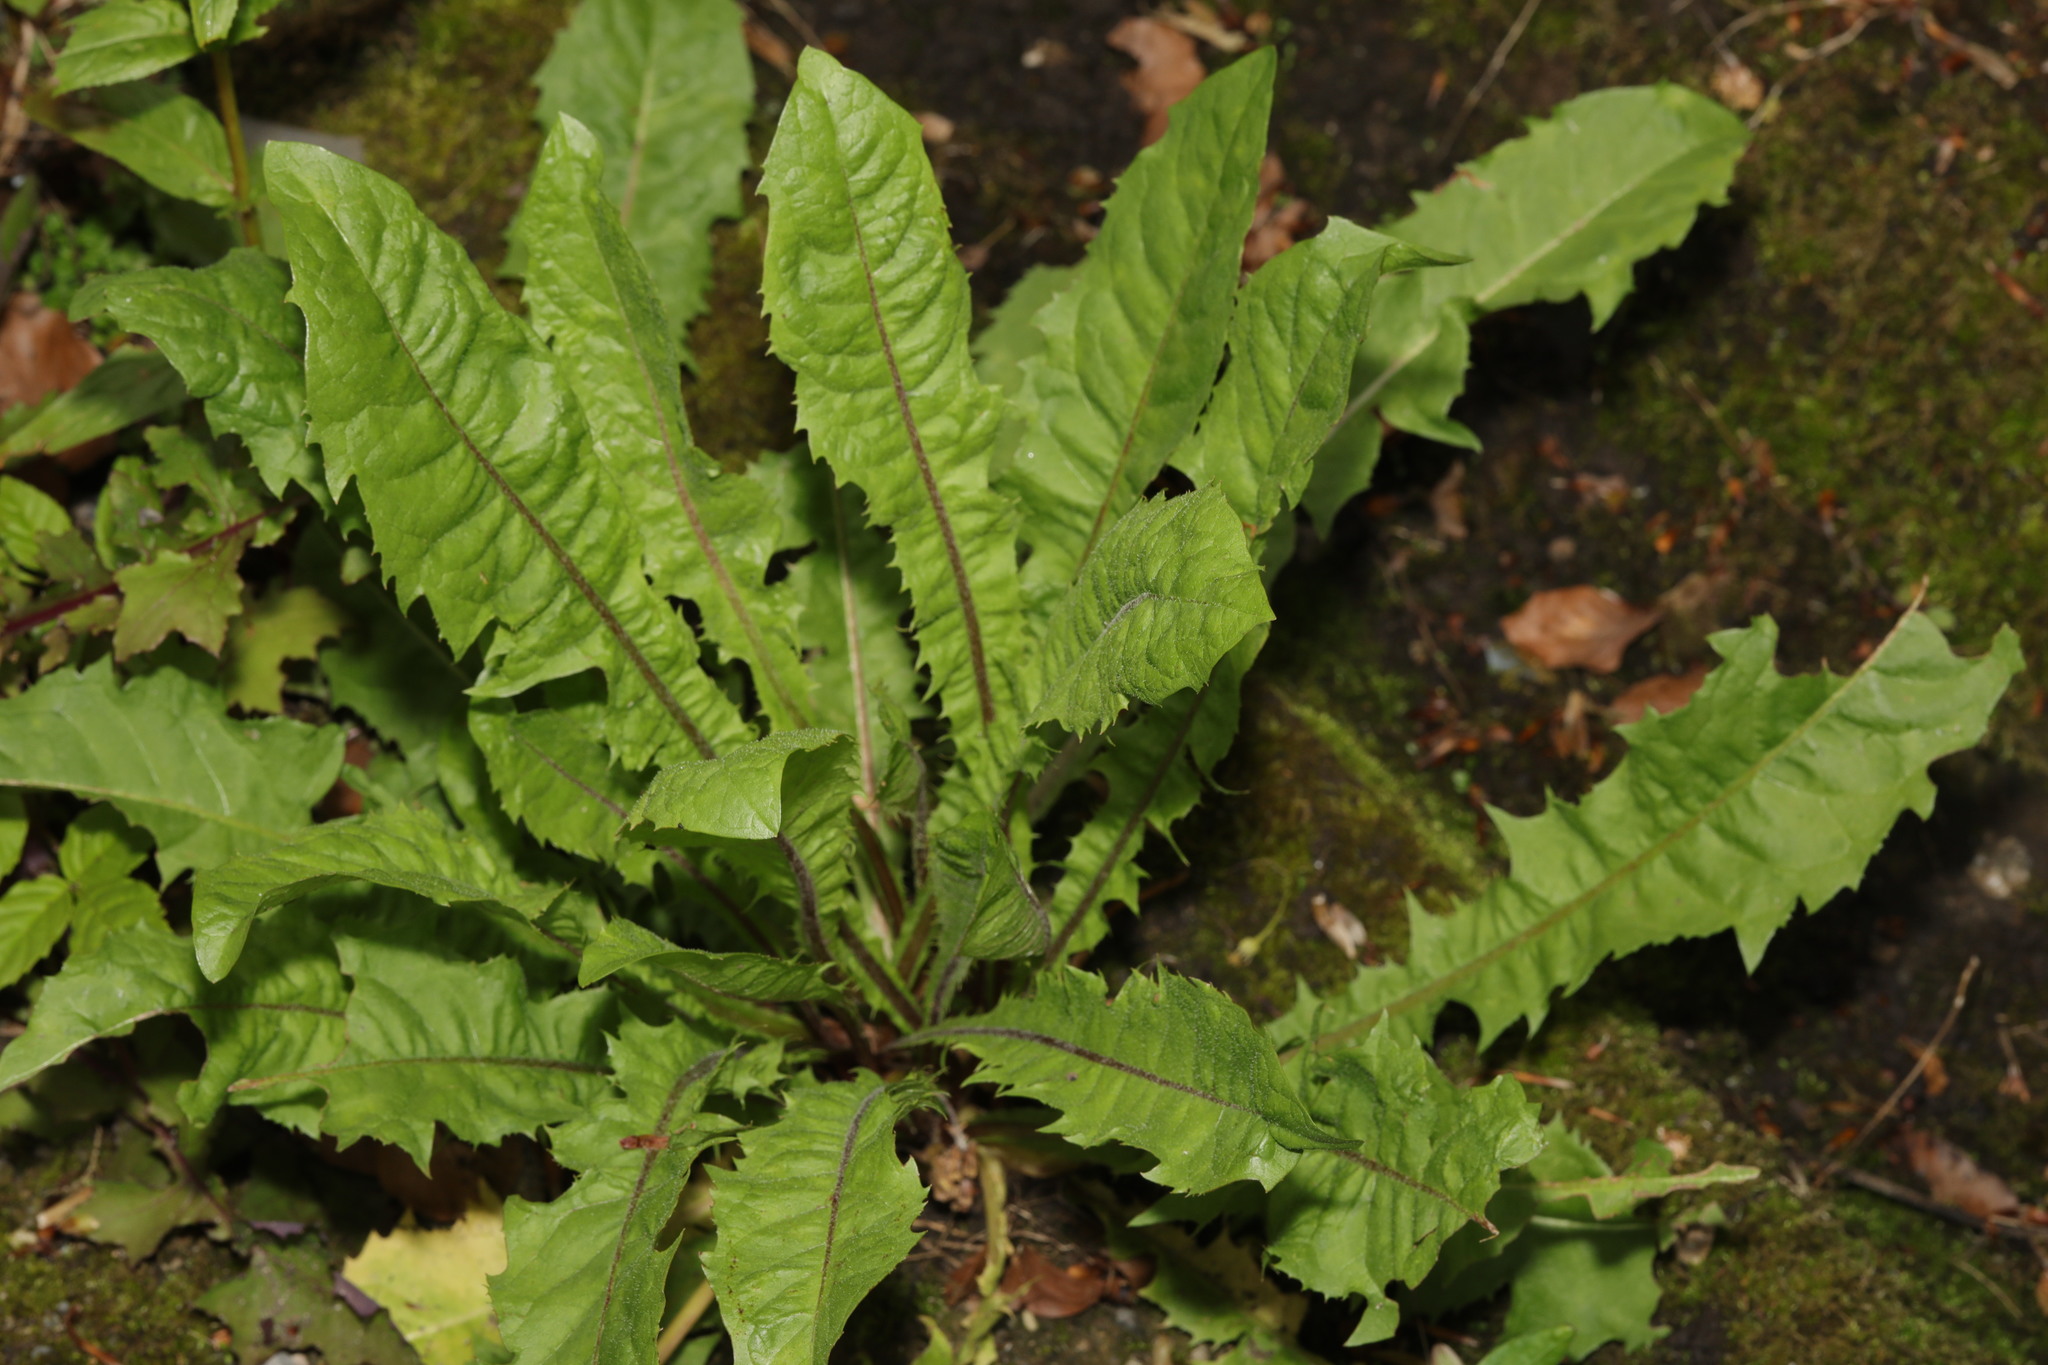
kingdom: Plantae
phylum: Tracheophyta
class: Magnoliopsida
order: Asterales
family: Asteraceae
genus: Taraxacum
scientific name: Taraxacum officinale
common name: Common dandelion
